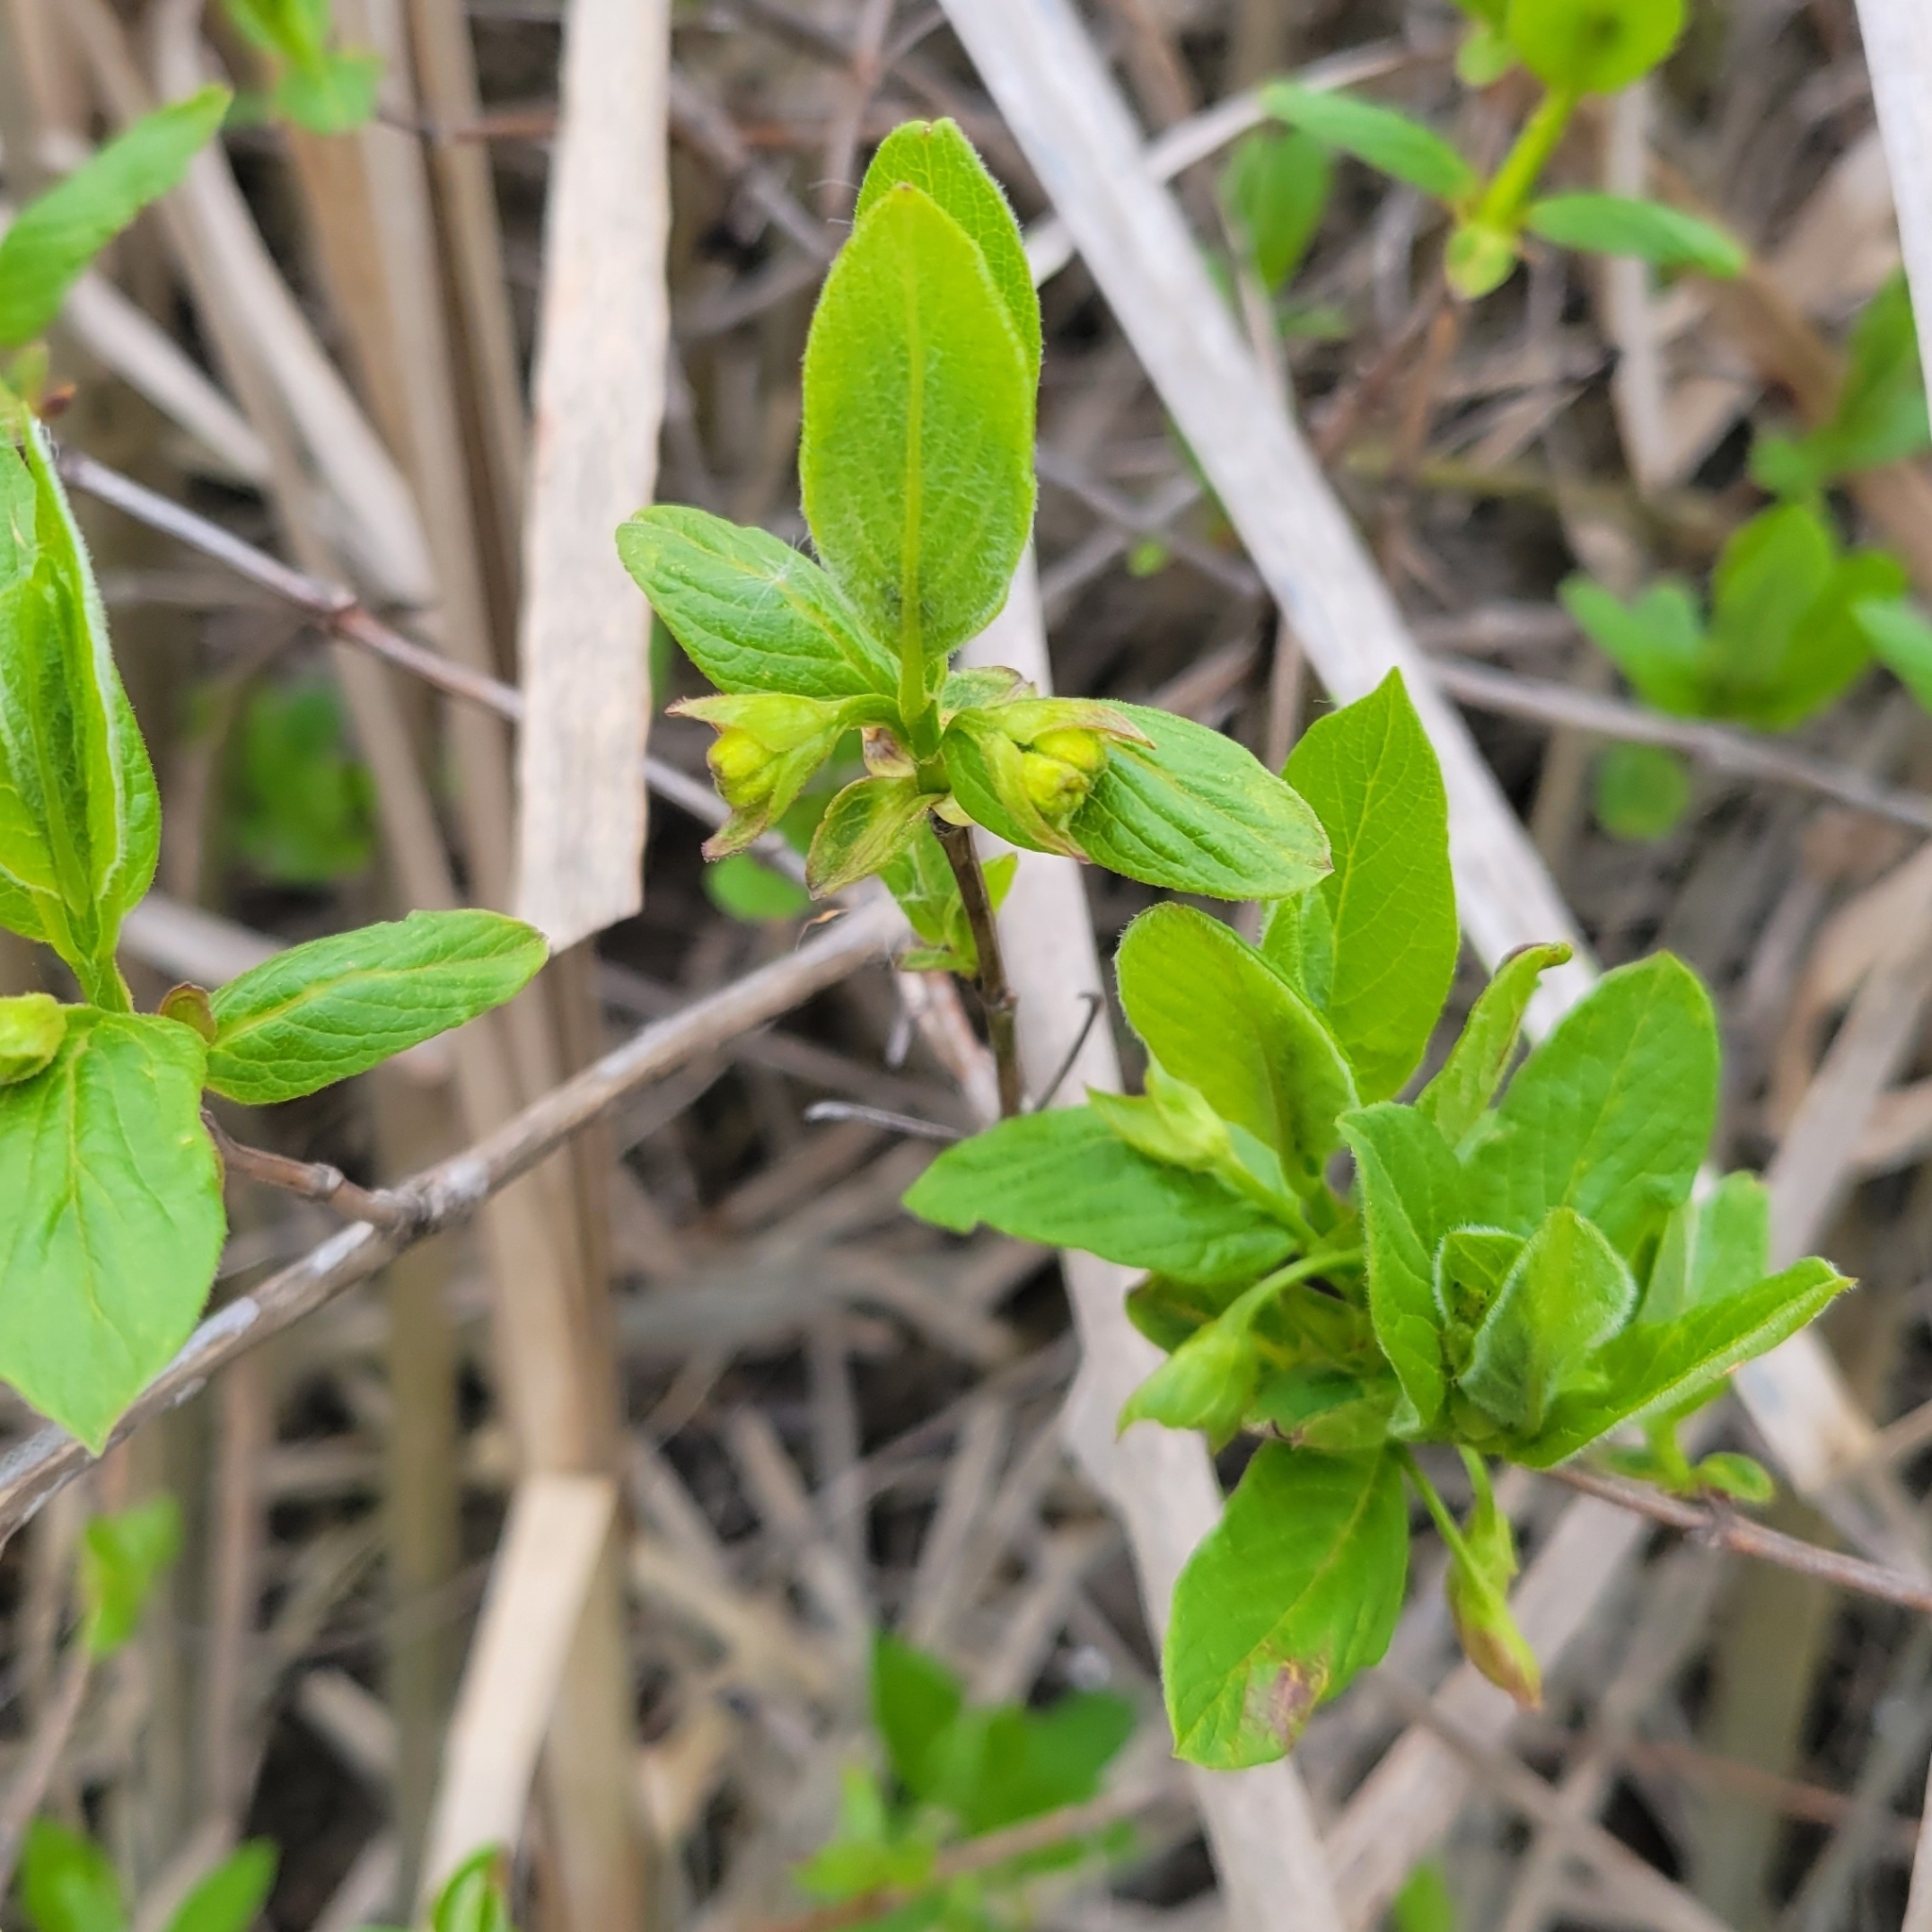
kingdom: Plantae
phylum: Tracheophyta
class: Magnoliopsida
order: Dipsacales
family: Caprifoliaceae
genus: Lonicera
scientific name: Lonicera involucrata
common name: Californian honeysuckle
